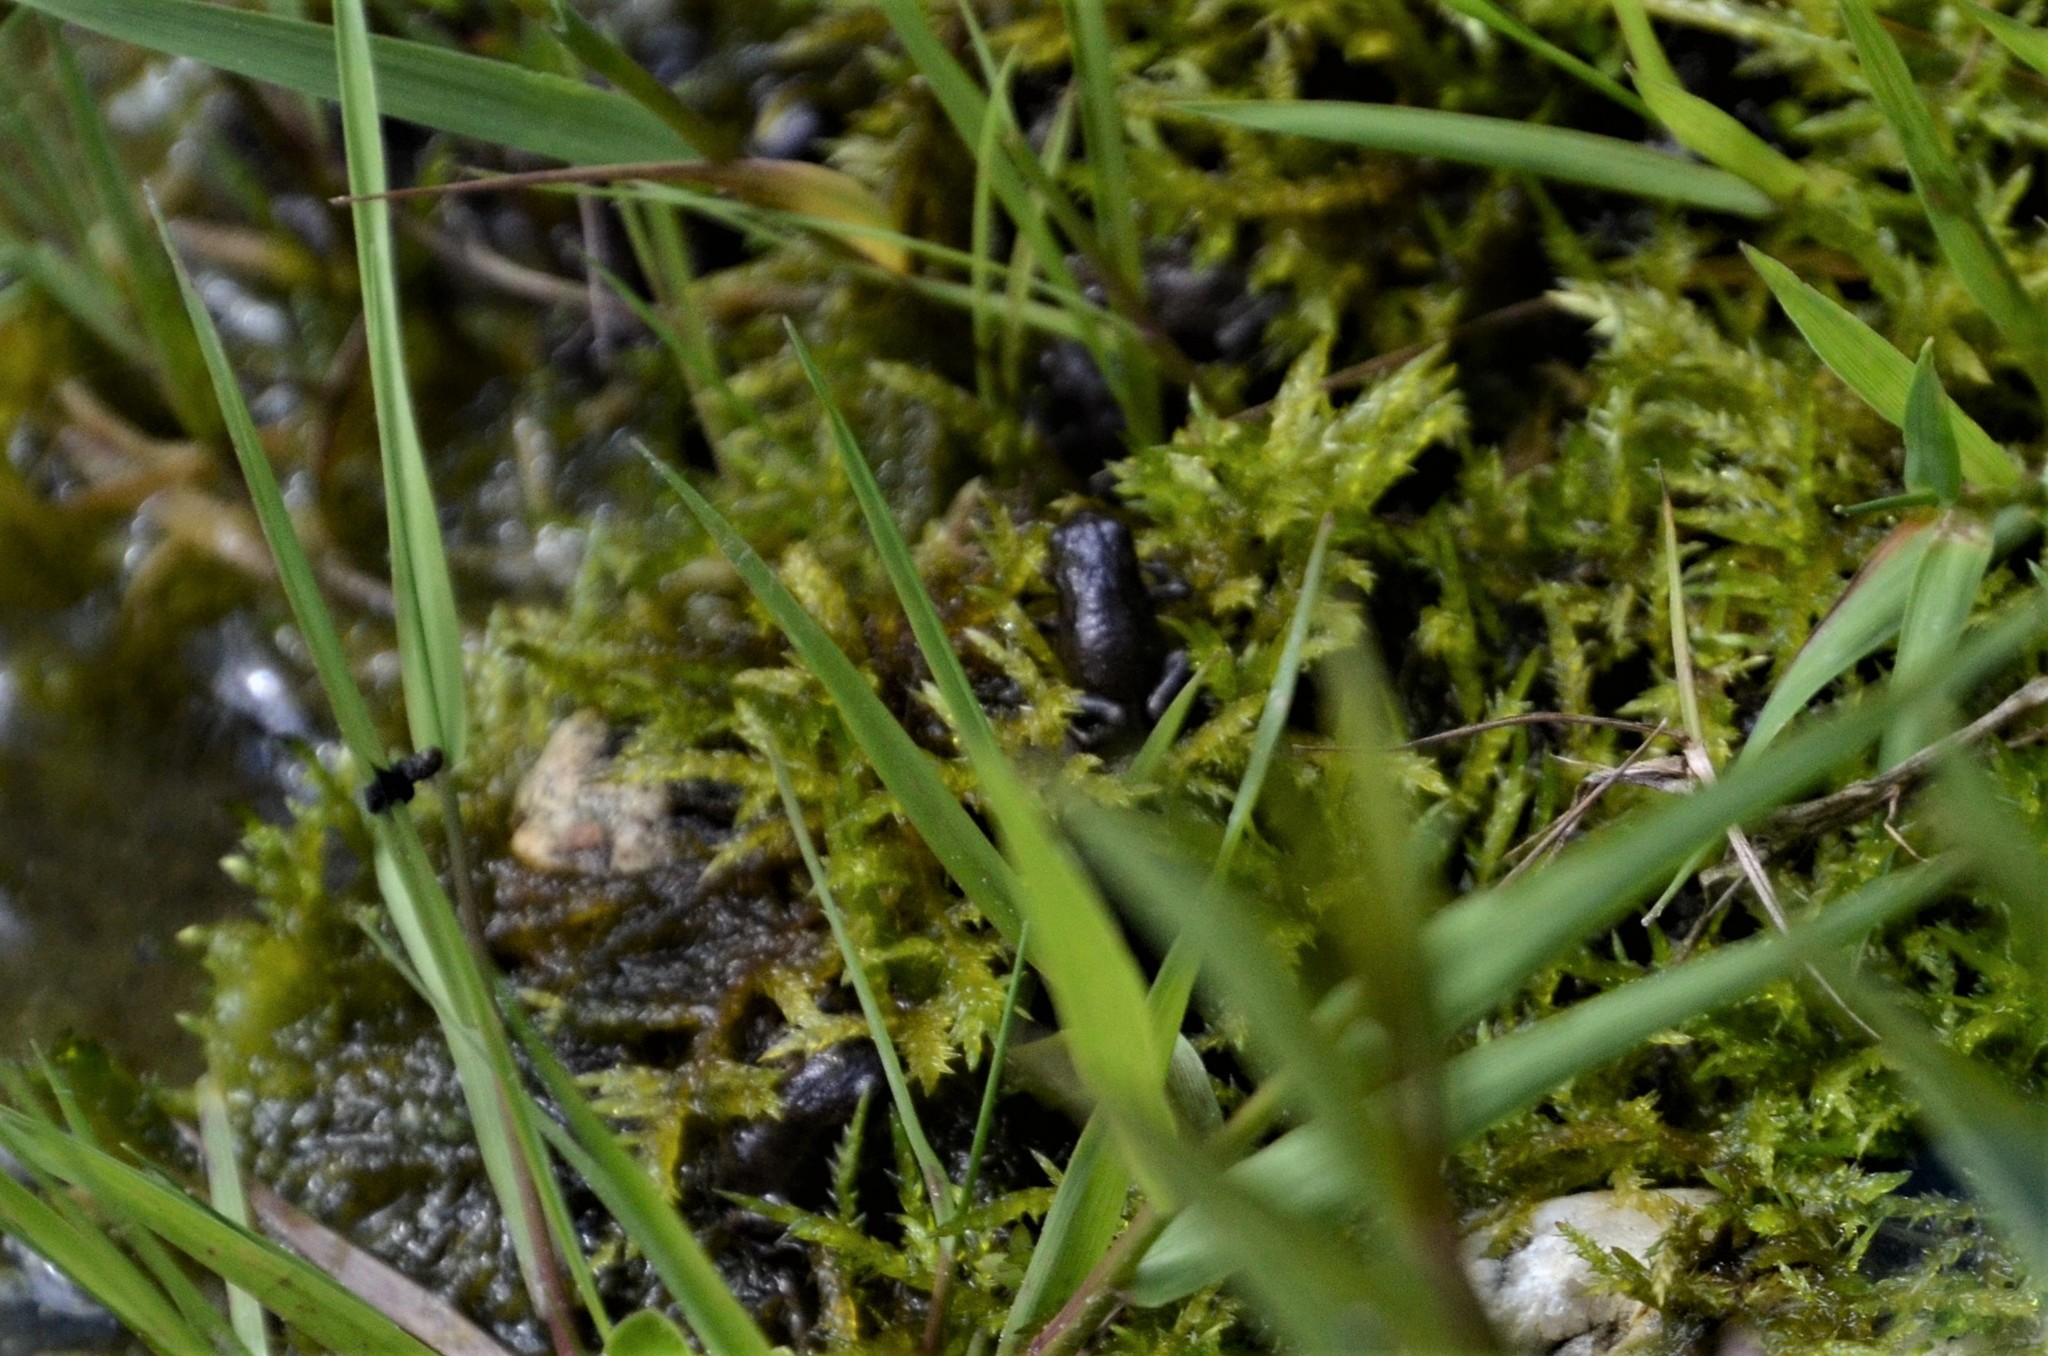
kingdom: Animalia
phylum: Chordata
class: Amphibia
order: Anura
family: Bufonidae
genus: Bufo
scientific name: Bufo bufo
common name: Common toad
